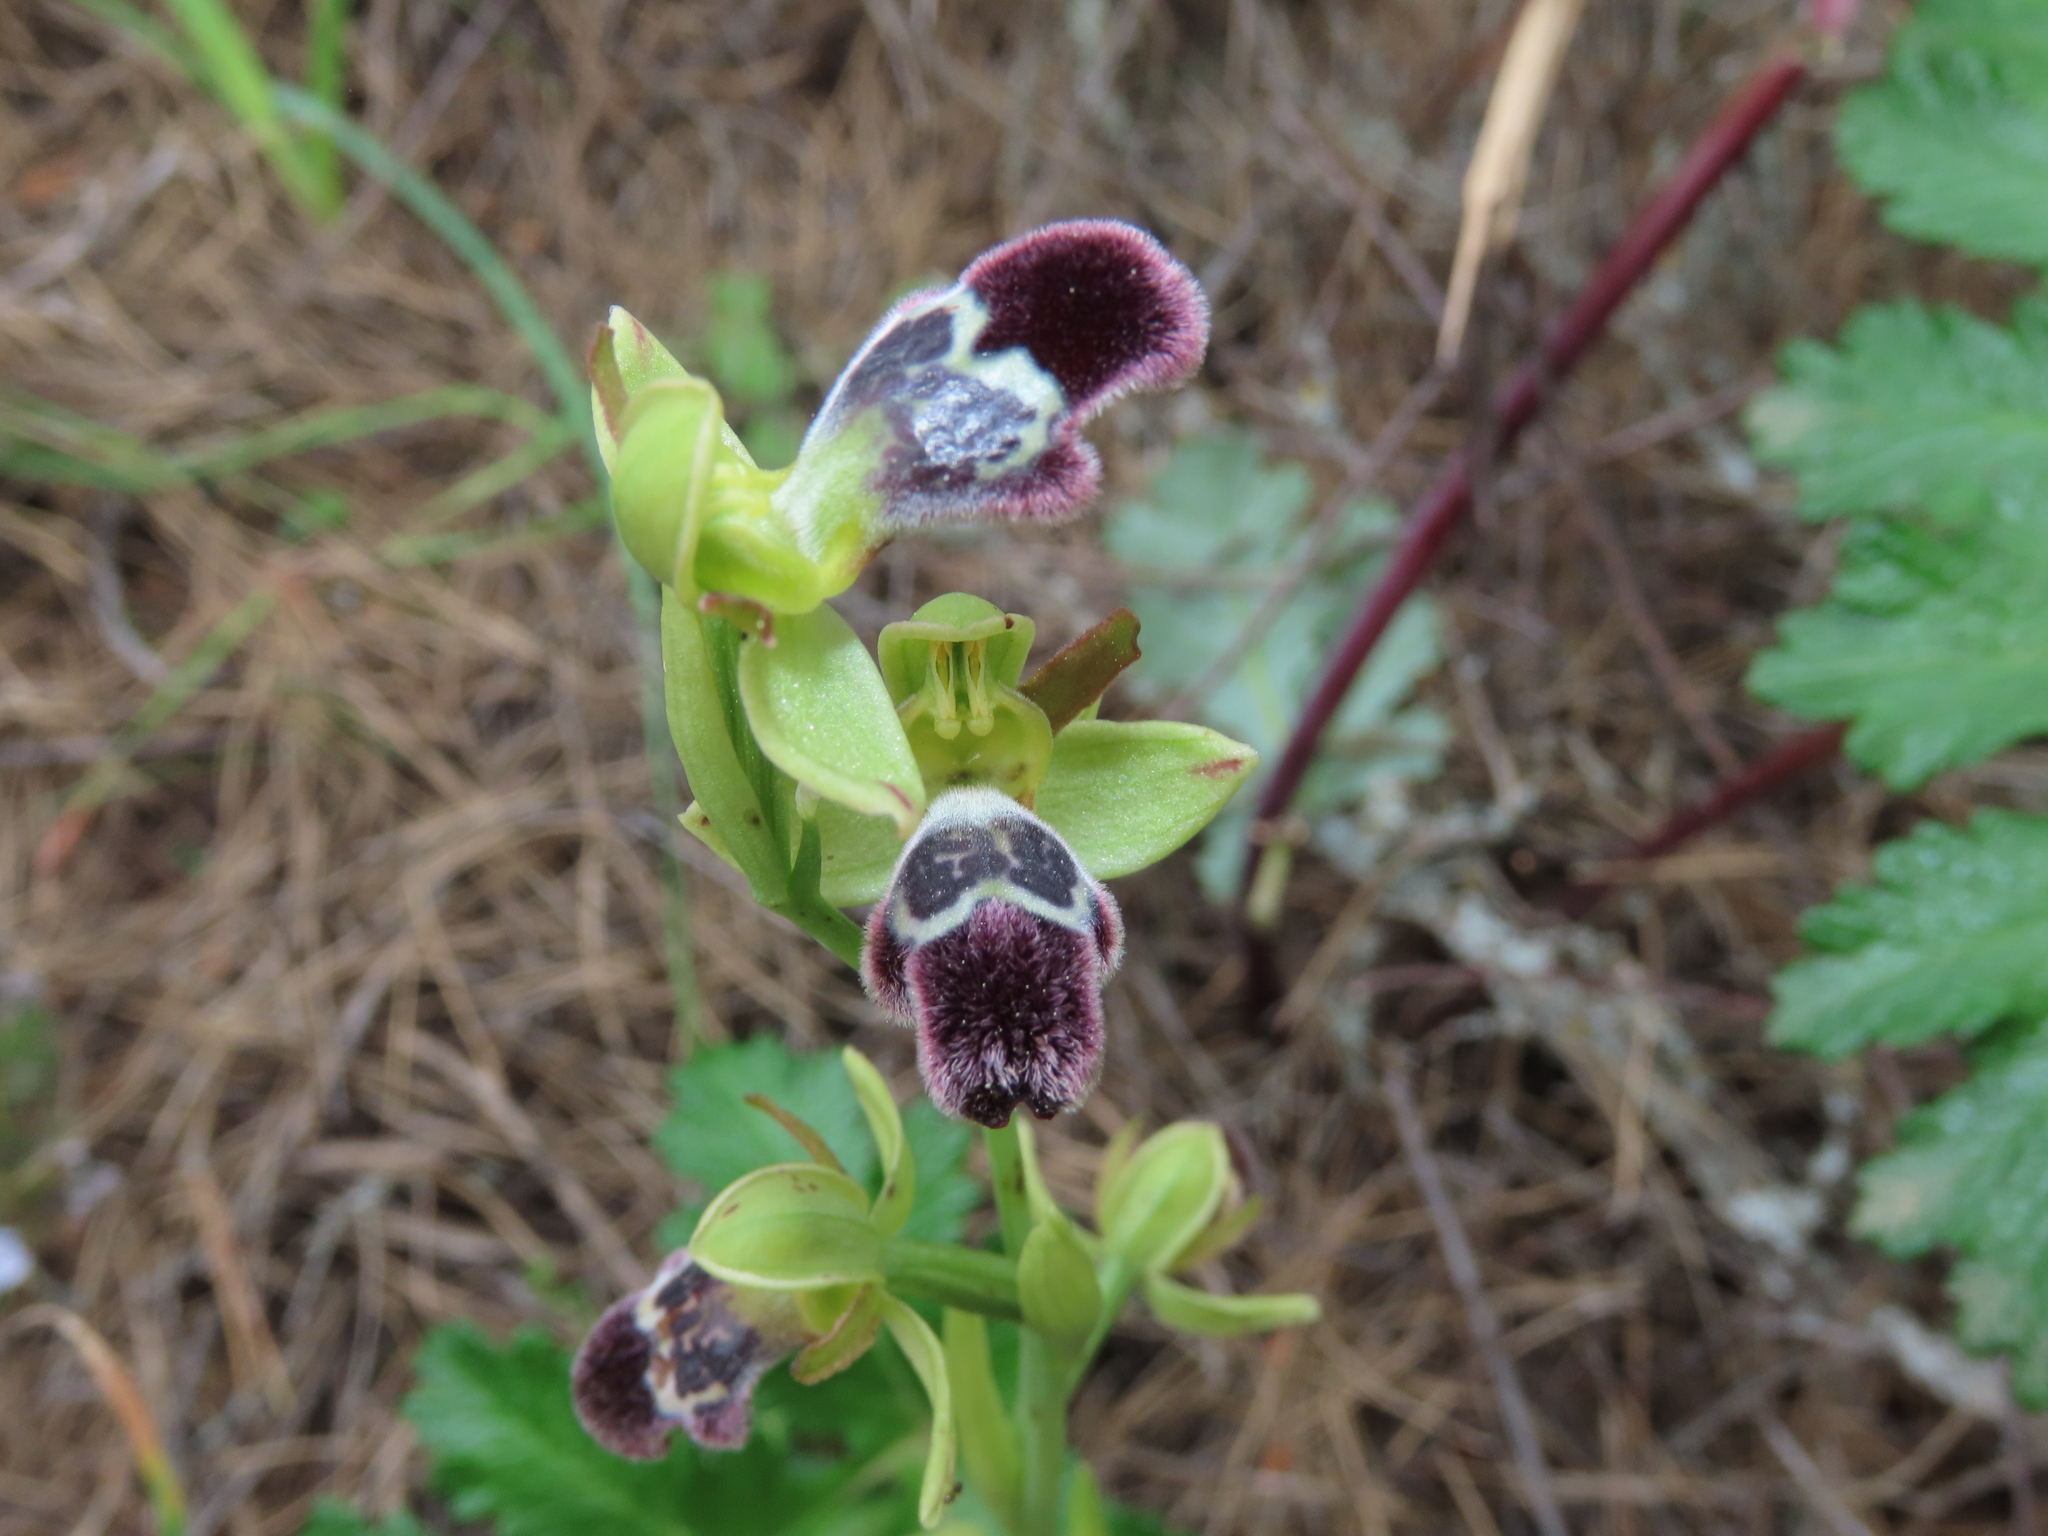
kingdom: Plantae
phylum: Tracheophyta
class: Liliopsida
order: Asparagales
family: Orchidaceae
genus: Ophrys
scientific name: Ophrys omegaifera
